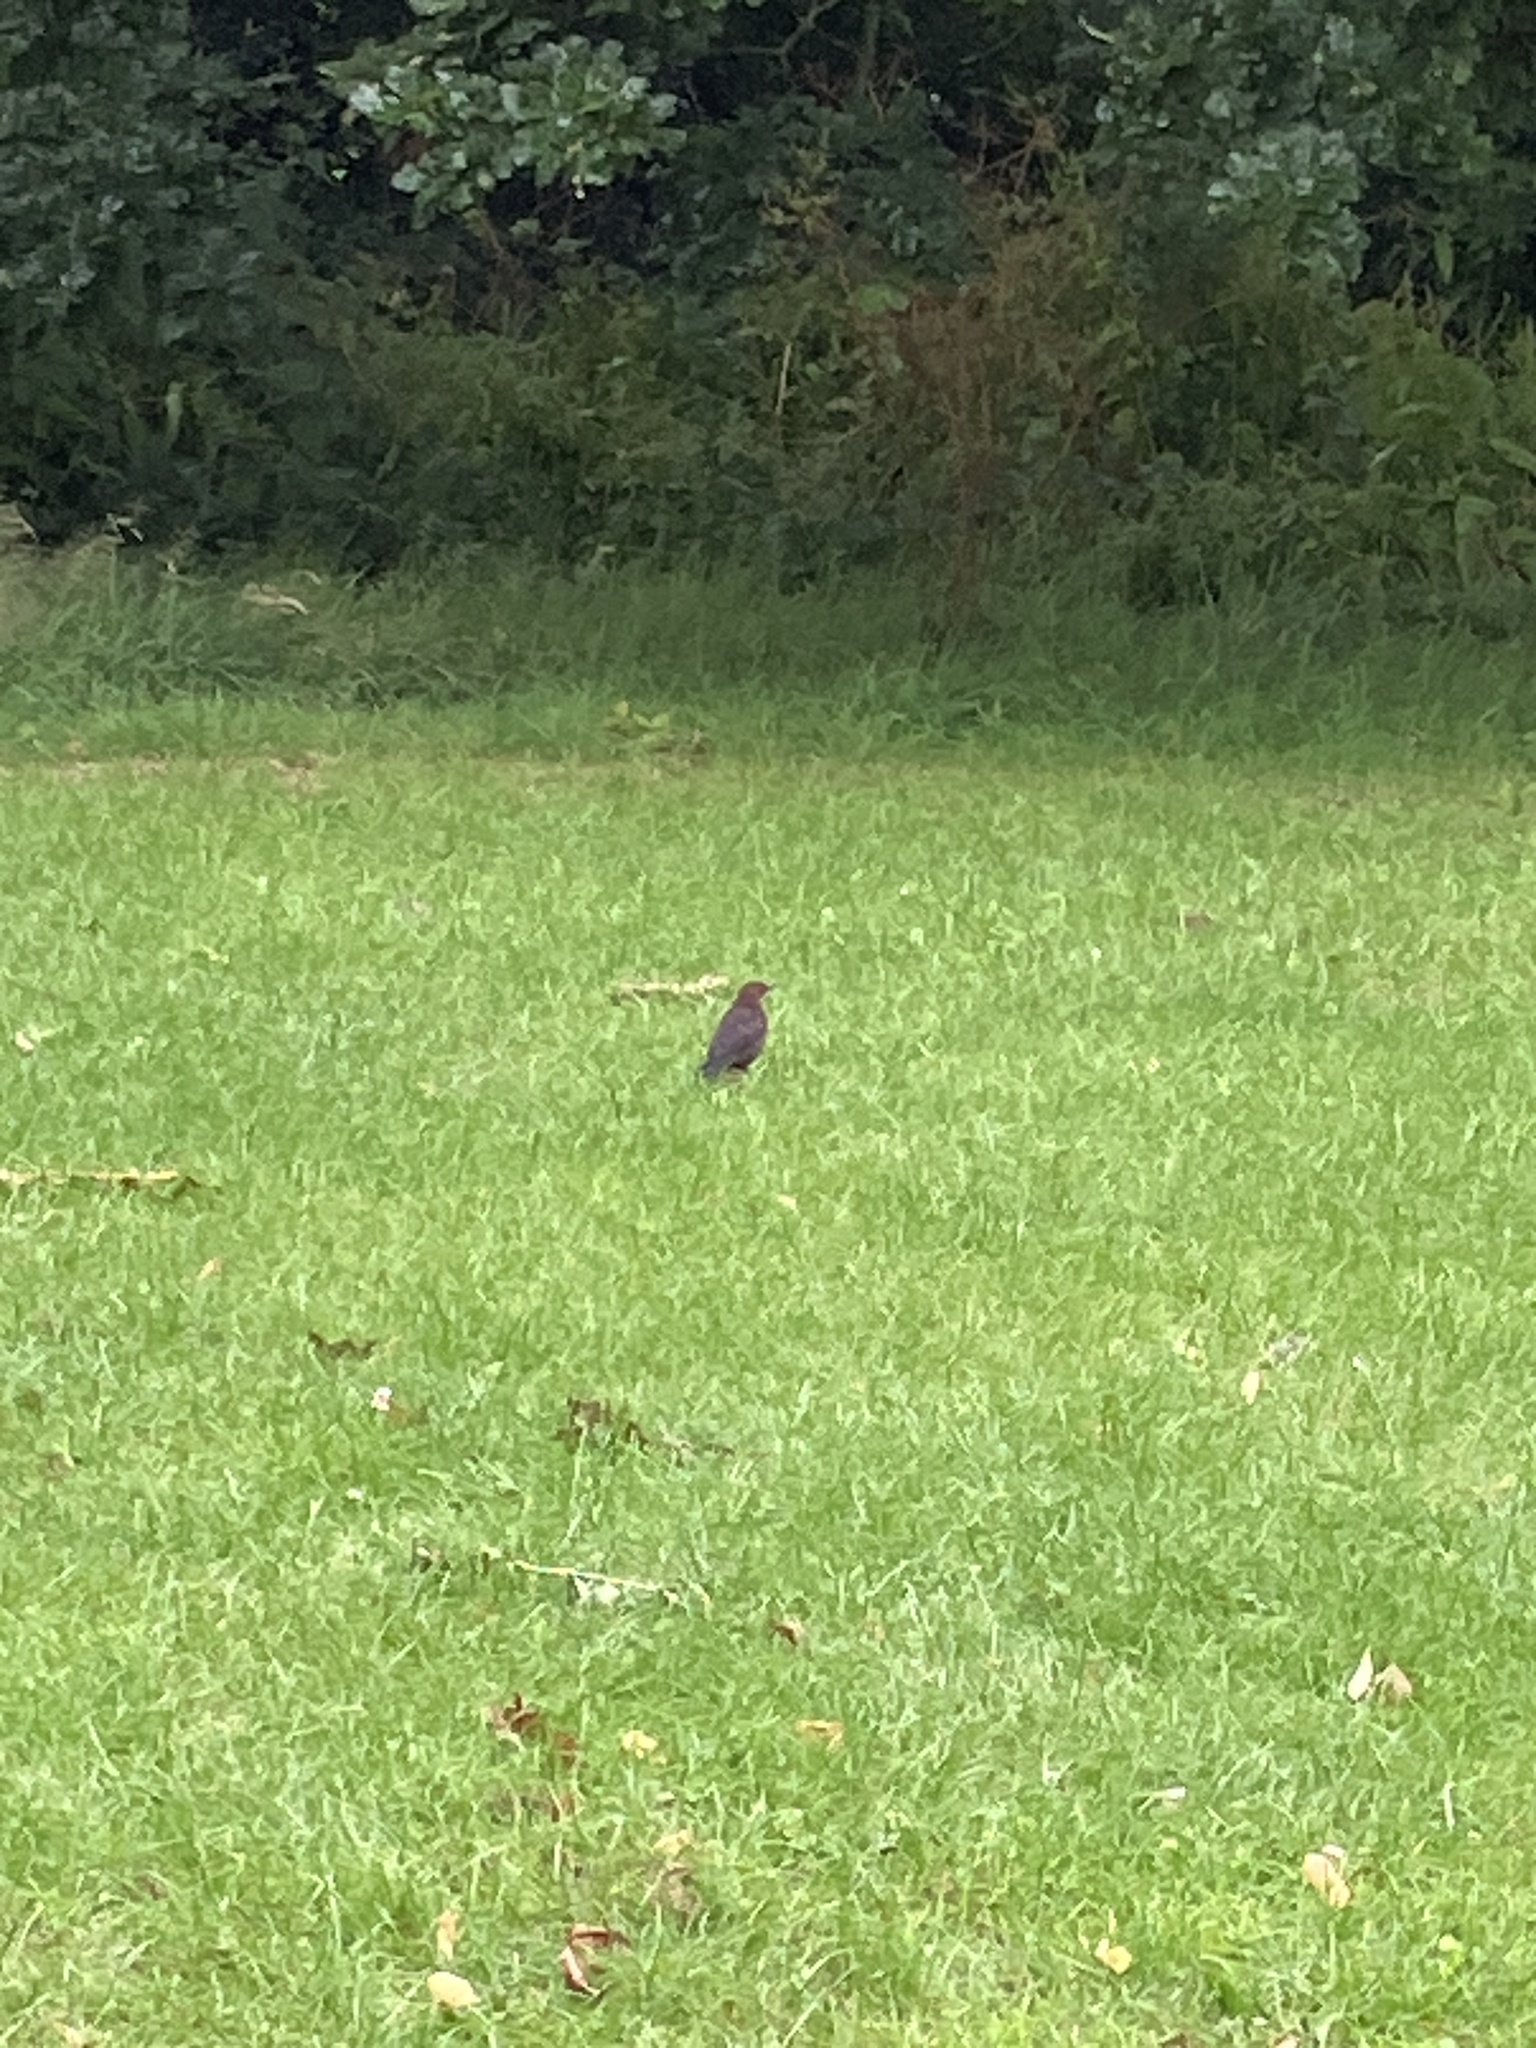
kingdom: Animalia
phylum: Chordata
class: Aves
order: Passeriformes
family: Turdidae
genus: Turdus
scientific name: Turdus merula
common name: Common blackbird
